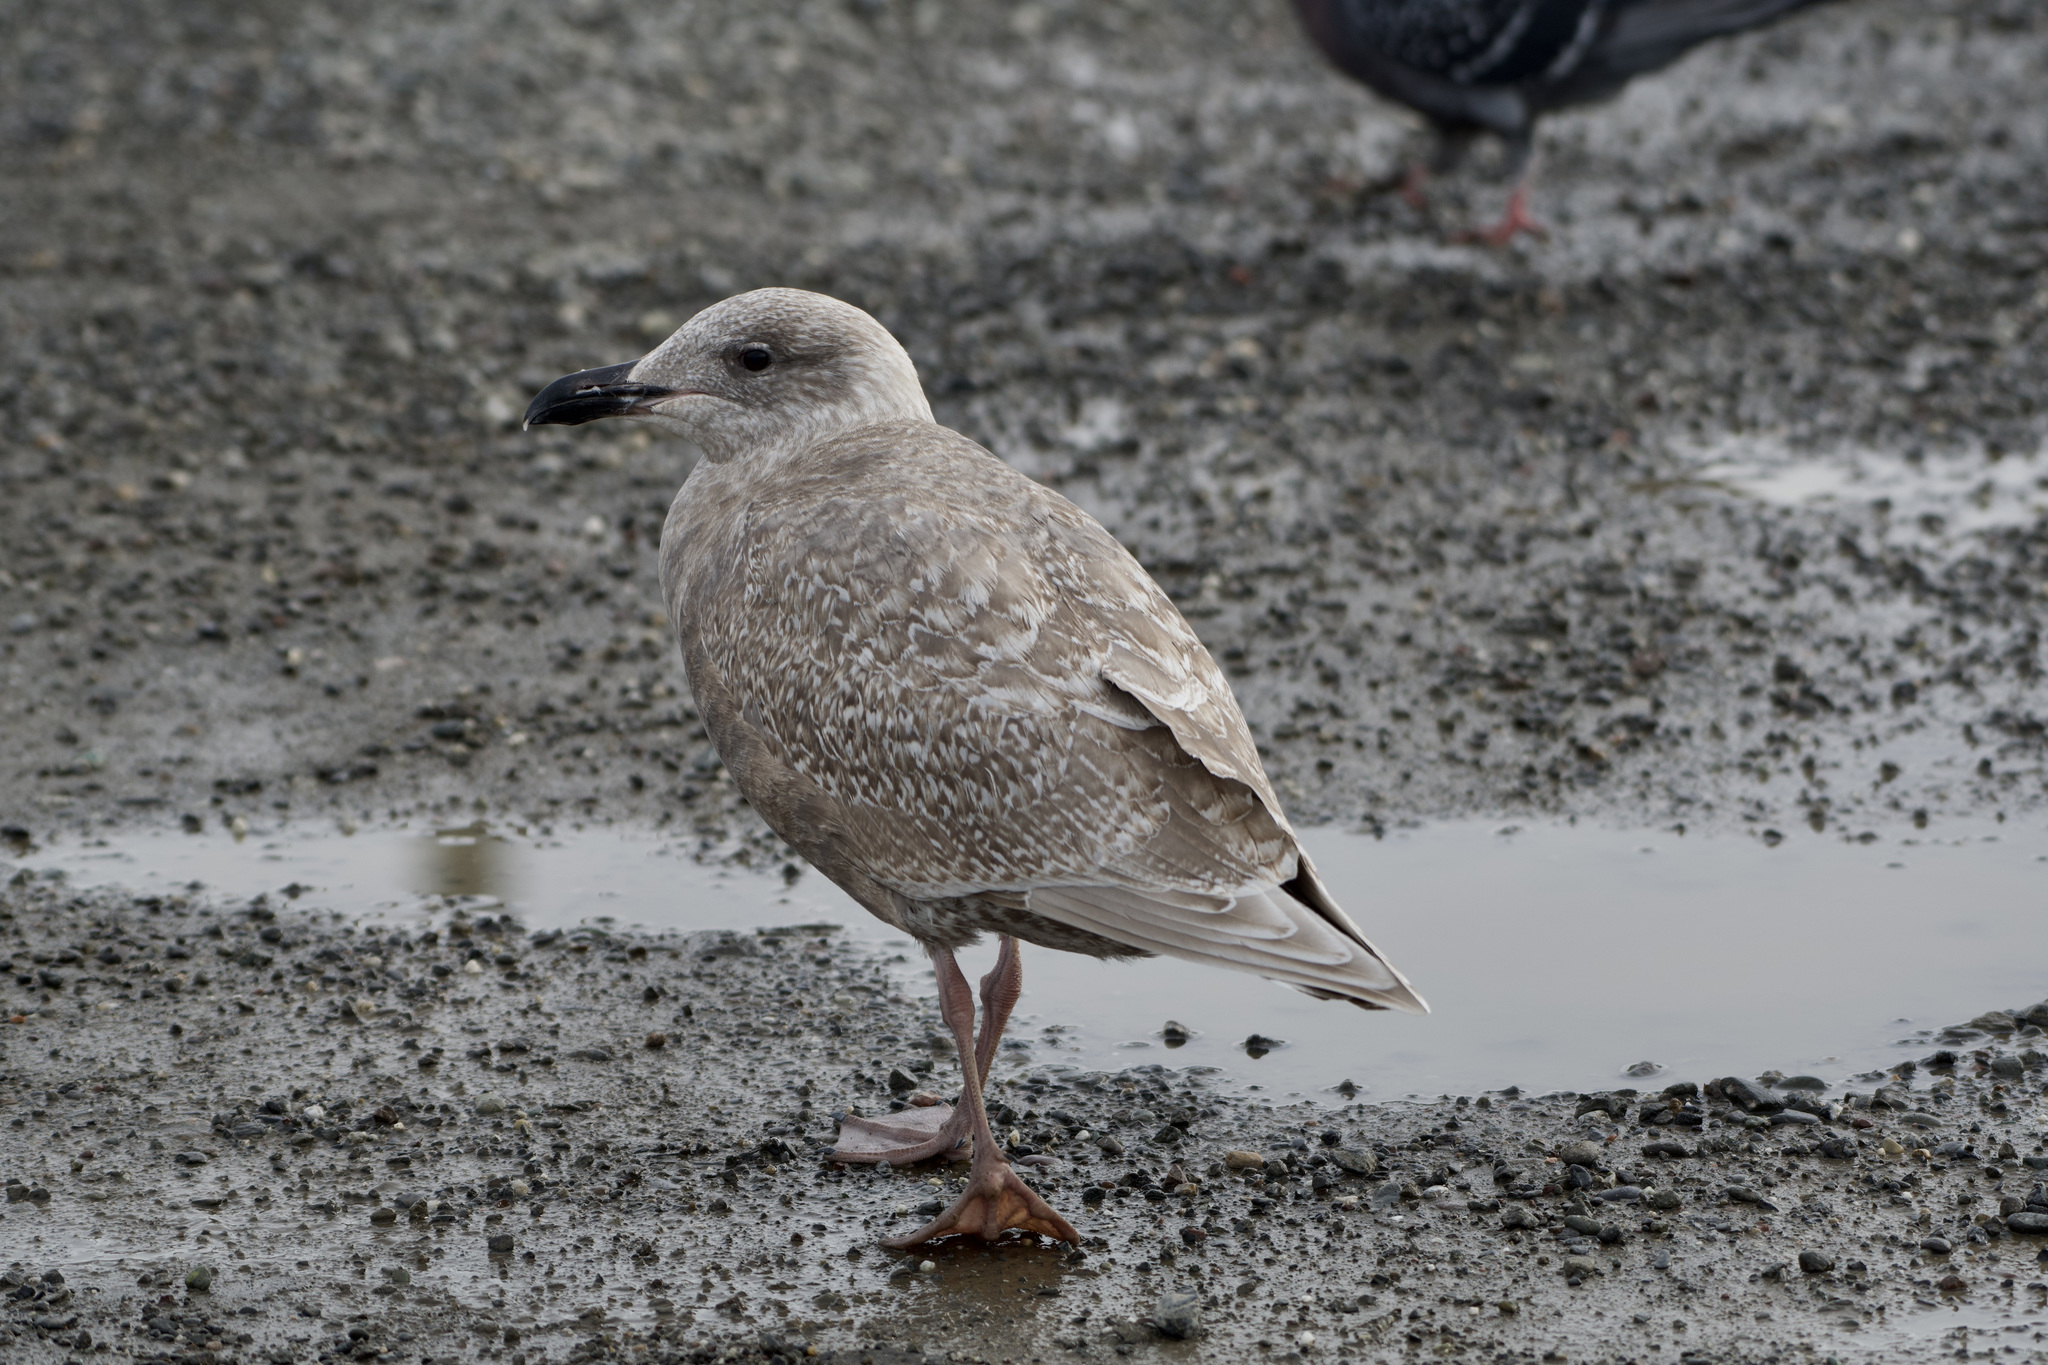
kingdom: Animalia
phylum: Chordata
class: Aves
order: Charadriiformes
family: Laridae
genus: Larus
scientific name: Larus glaucescens
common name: Glaucous-winged gull
